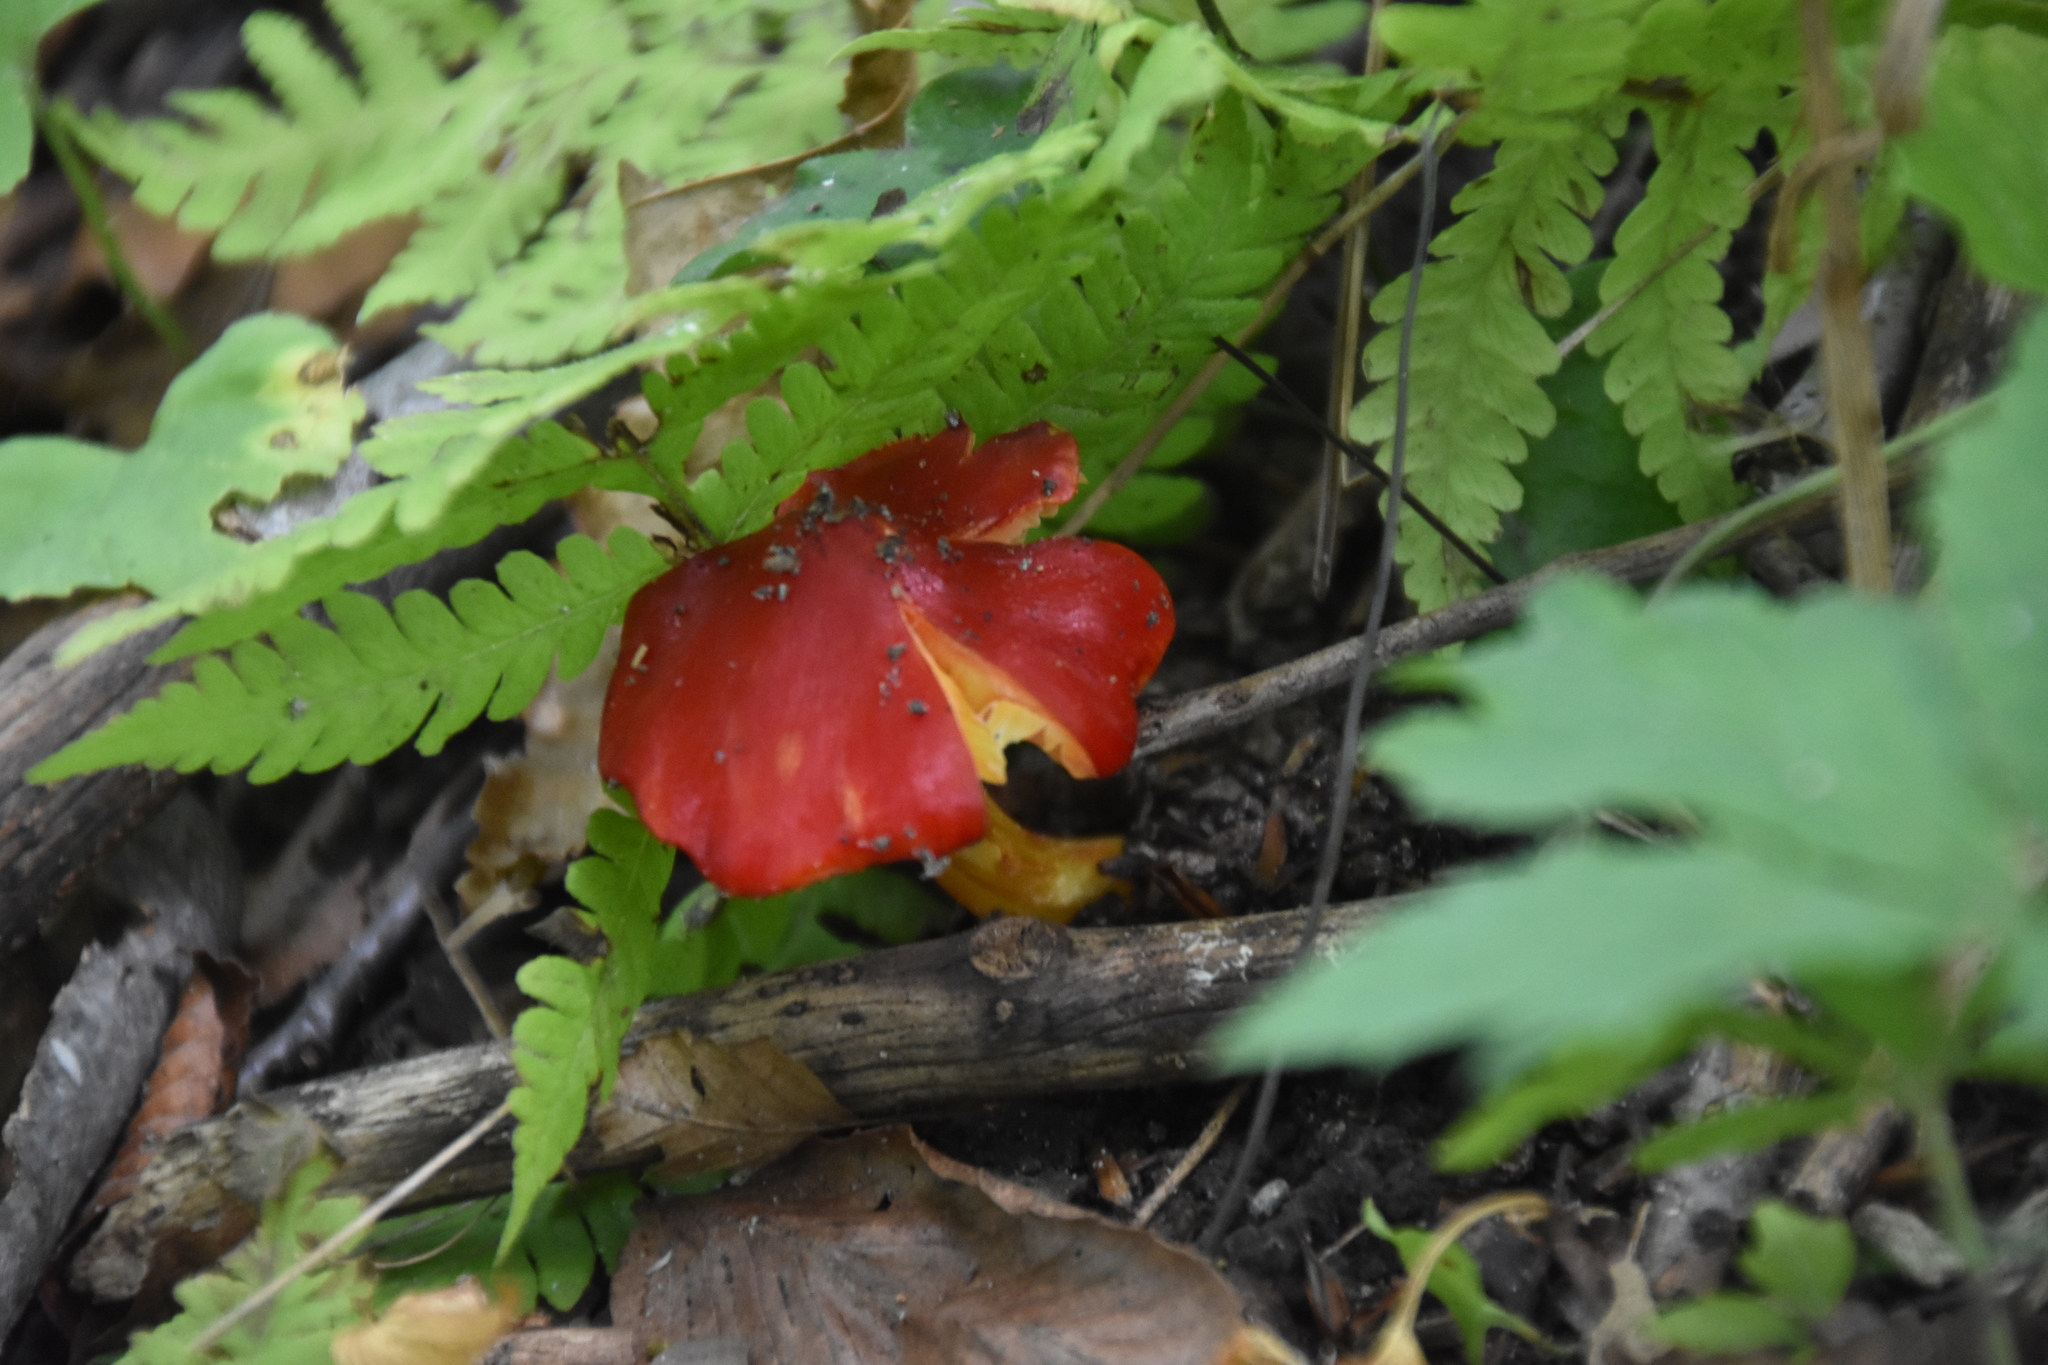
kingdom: Fungi
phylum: Basidiomycota
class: Agaricomycetes
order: Agaricales
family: Hygrophoraceae
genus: Hygrocybe
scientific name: Hygrocybe coccinea
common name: Scarlet hood
